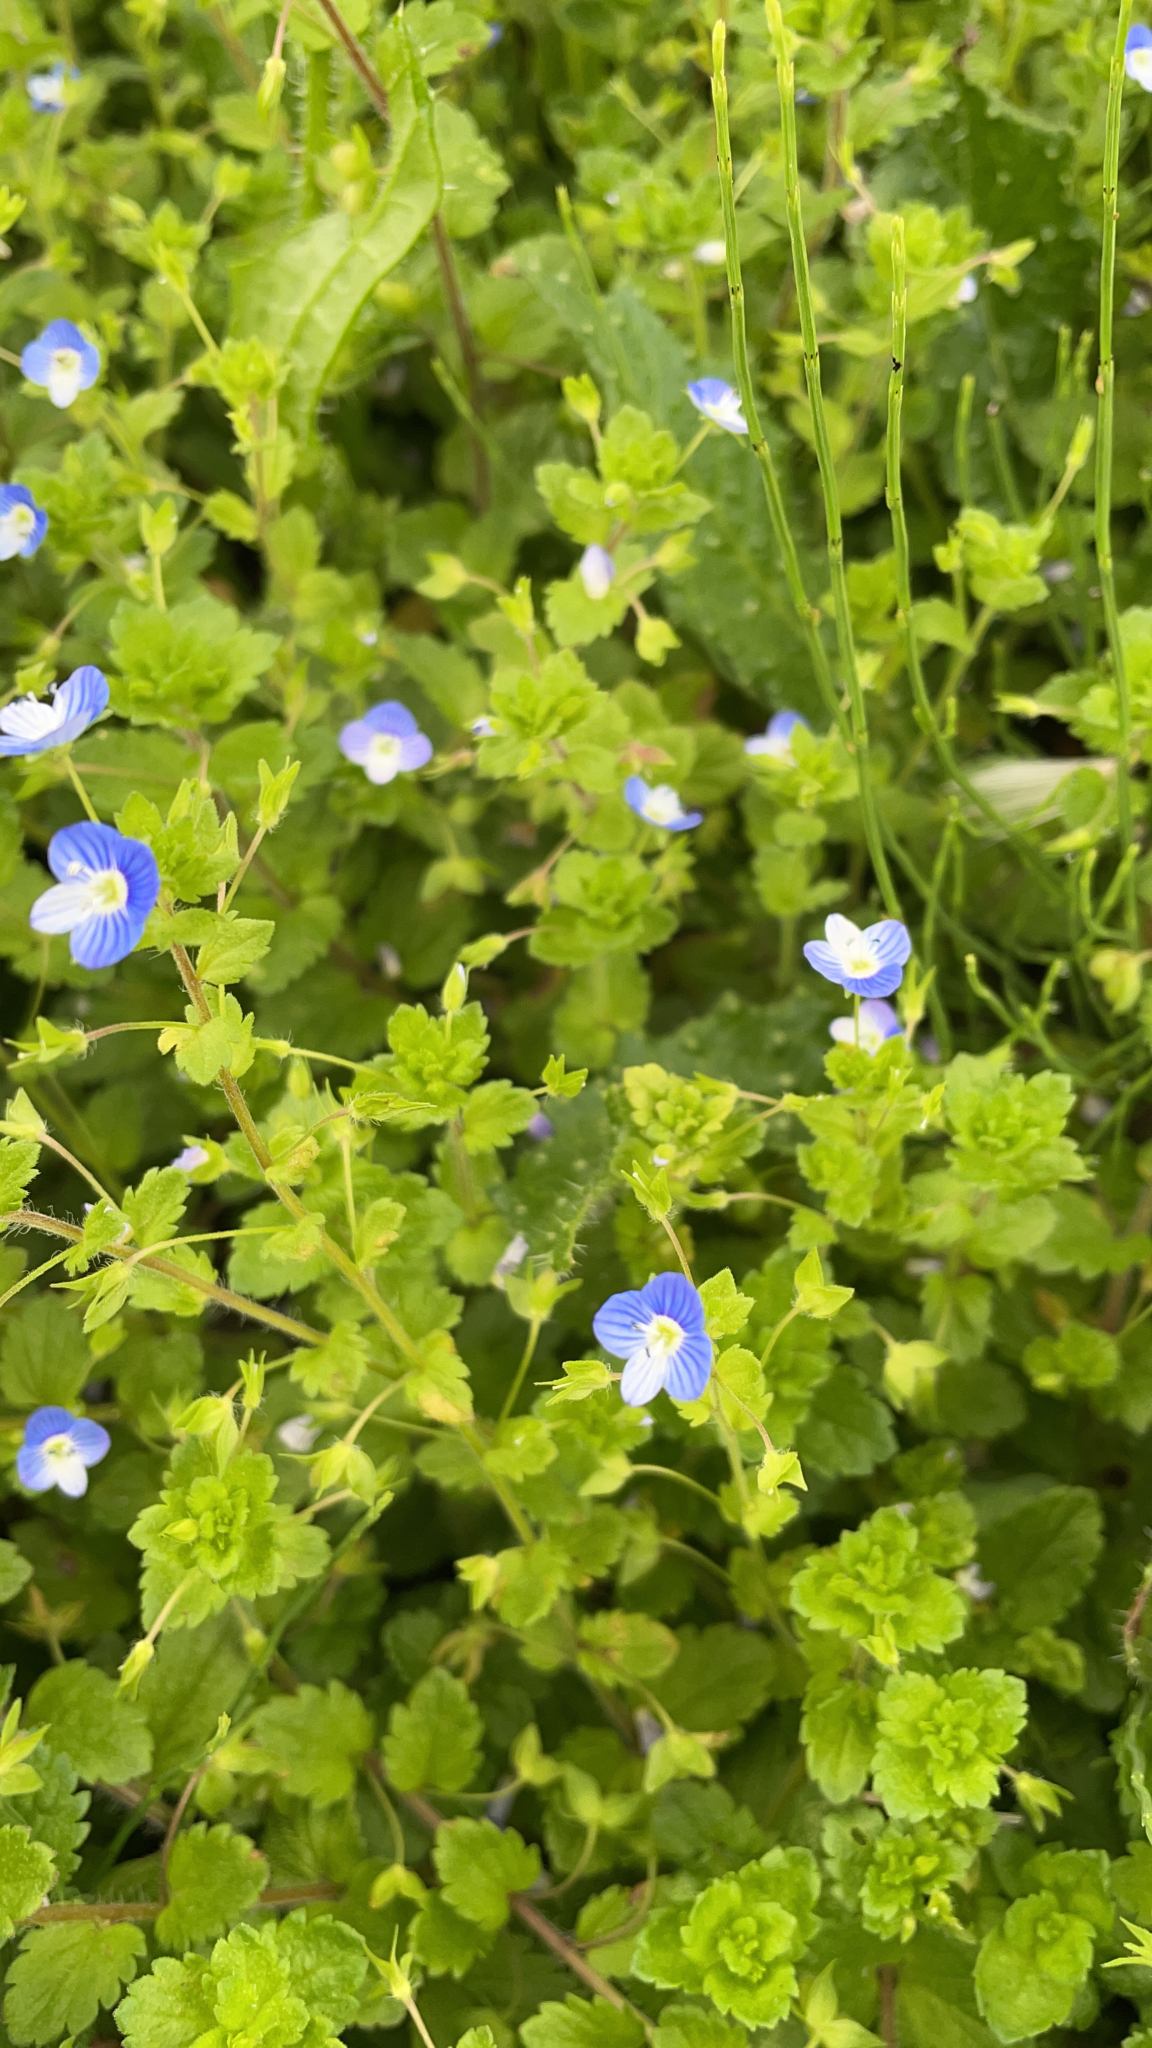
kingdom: Plantae
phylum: Tracheophyta
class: Magnoliopsida
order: Lamiales
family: Plantaginaceae
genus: Veronica
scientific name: Veronica persica
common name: Common field-speedwell
